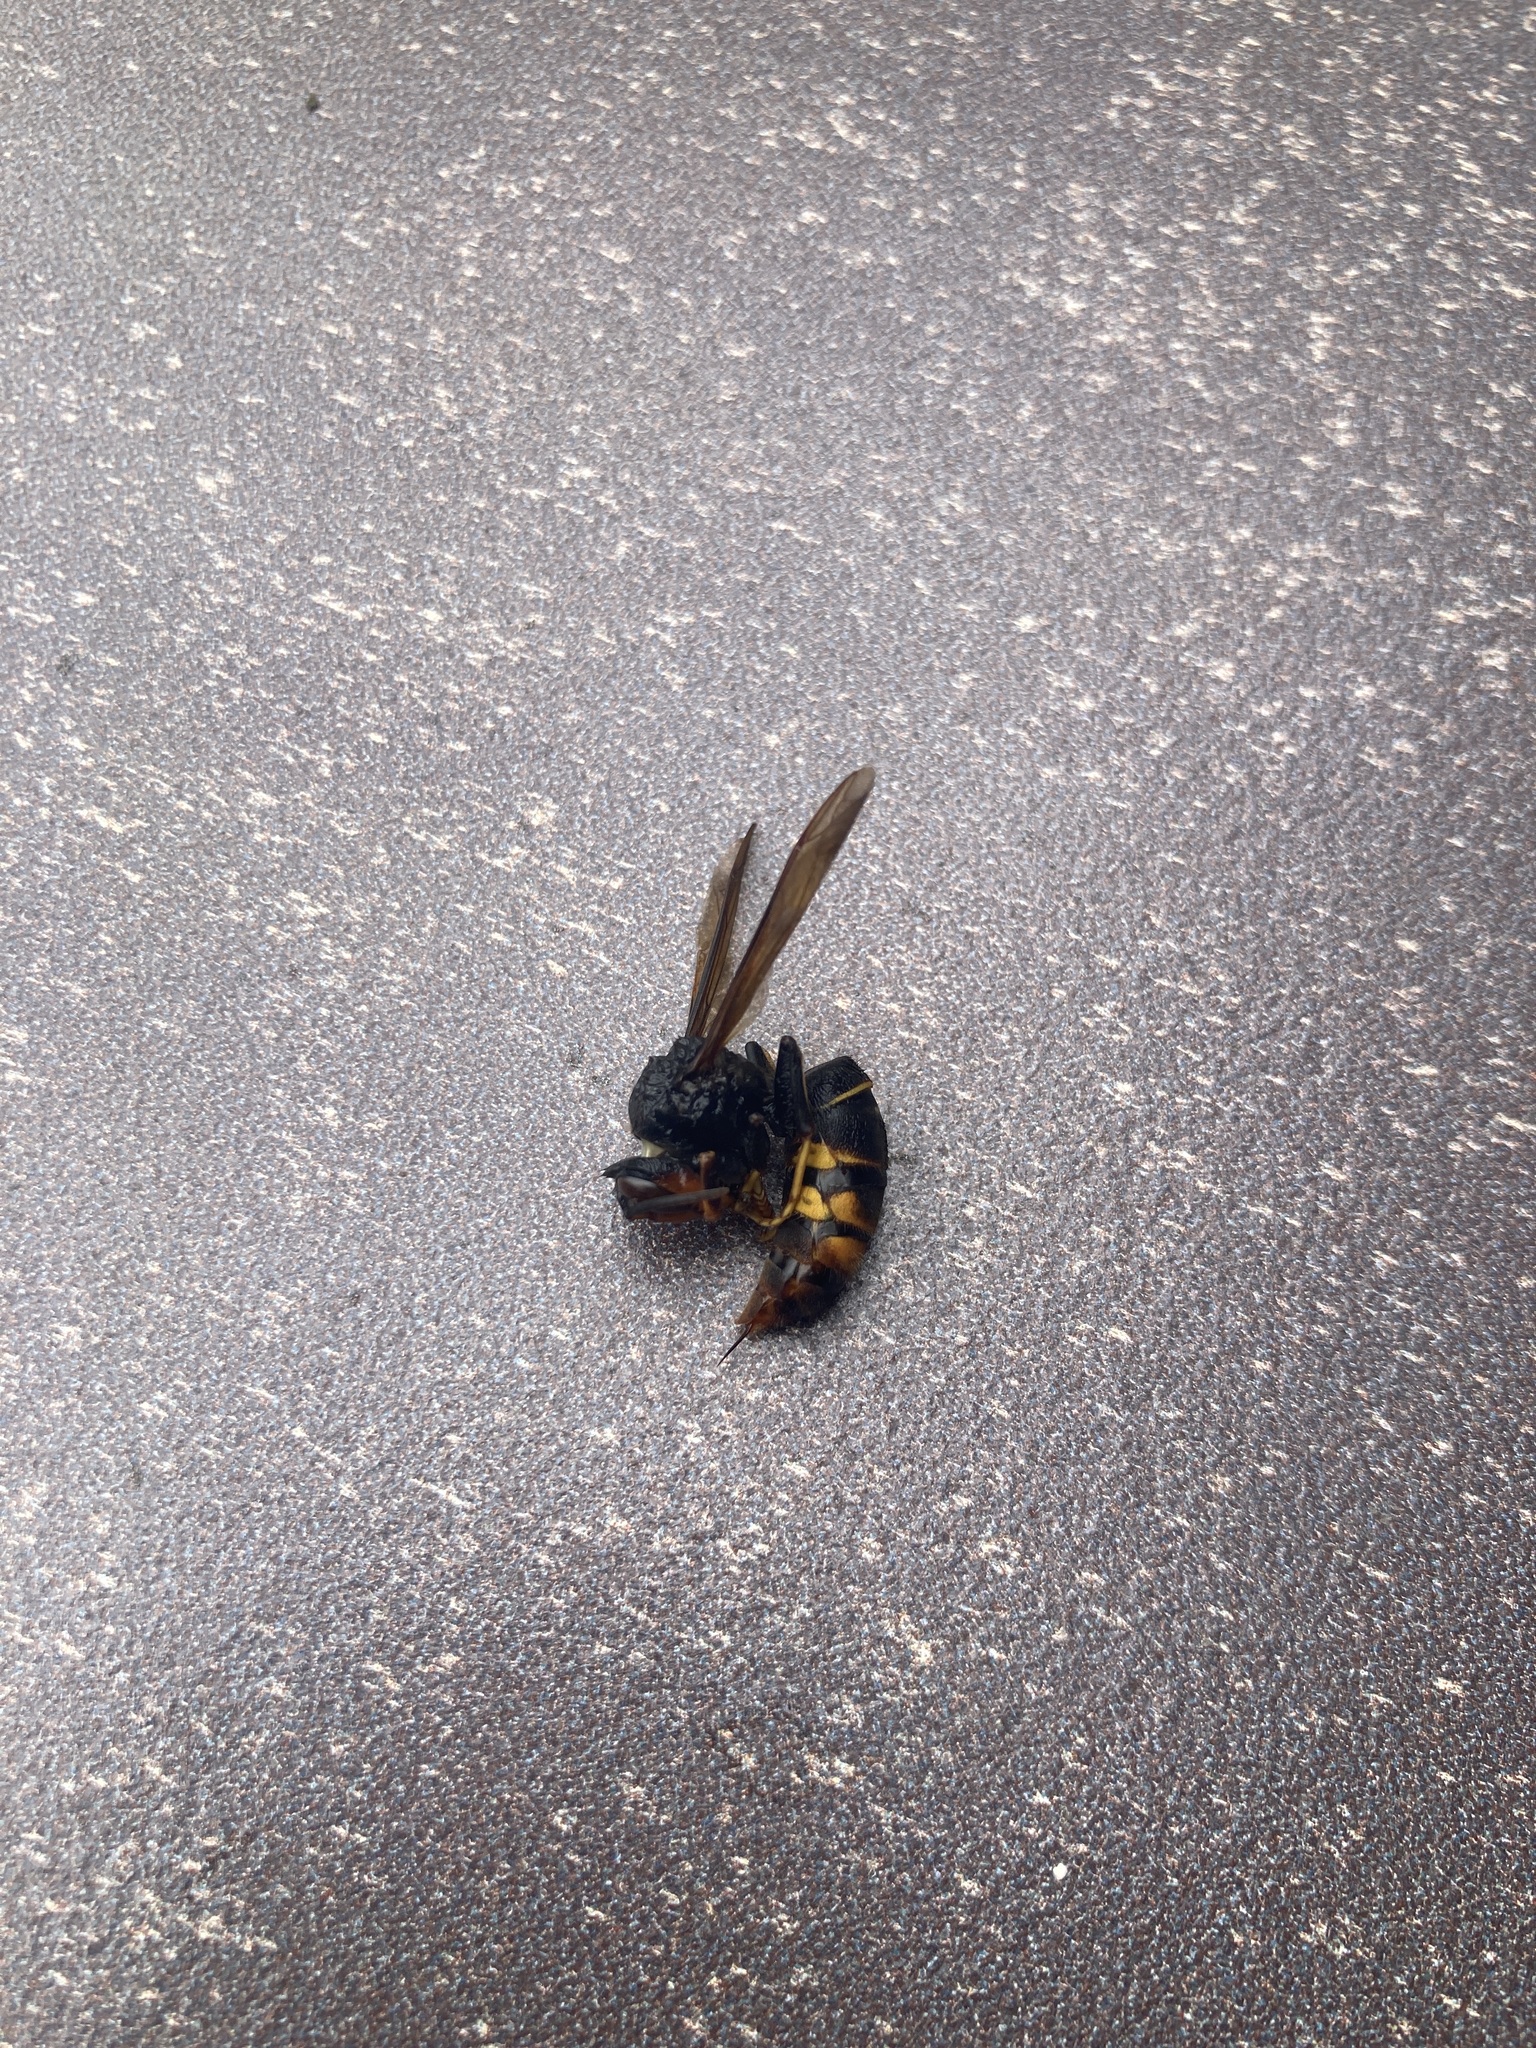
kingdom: Animalia
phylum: Arthropoda
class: Insecta
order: Hymenoptera
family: Vespidae
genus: Vespa
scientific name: Vespa velutina
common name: Asian hornet
